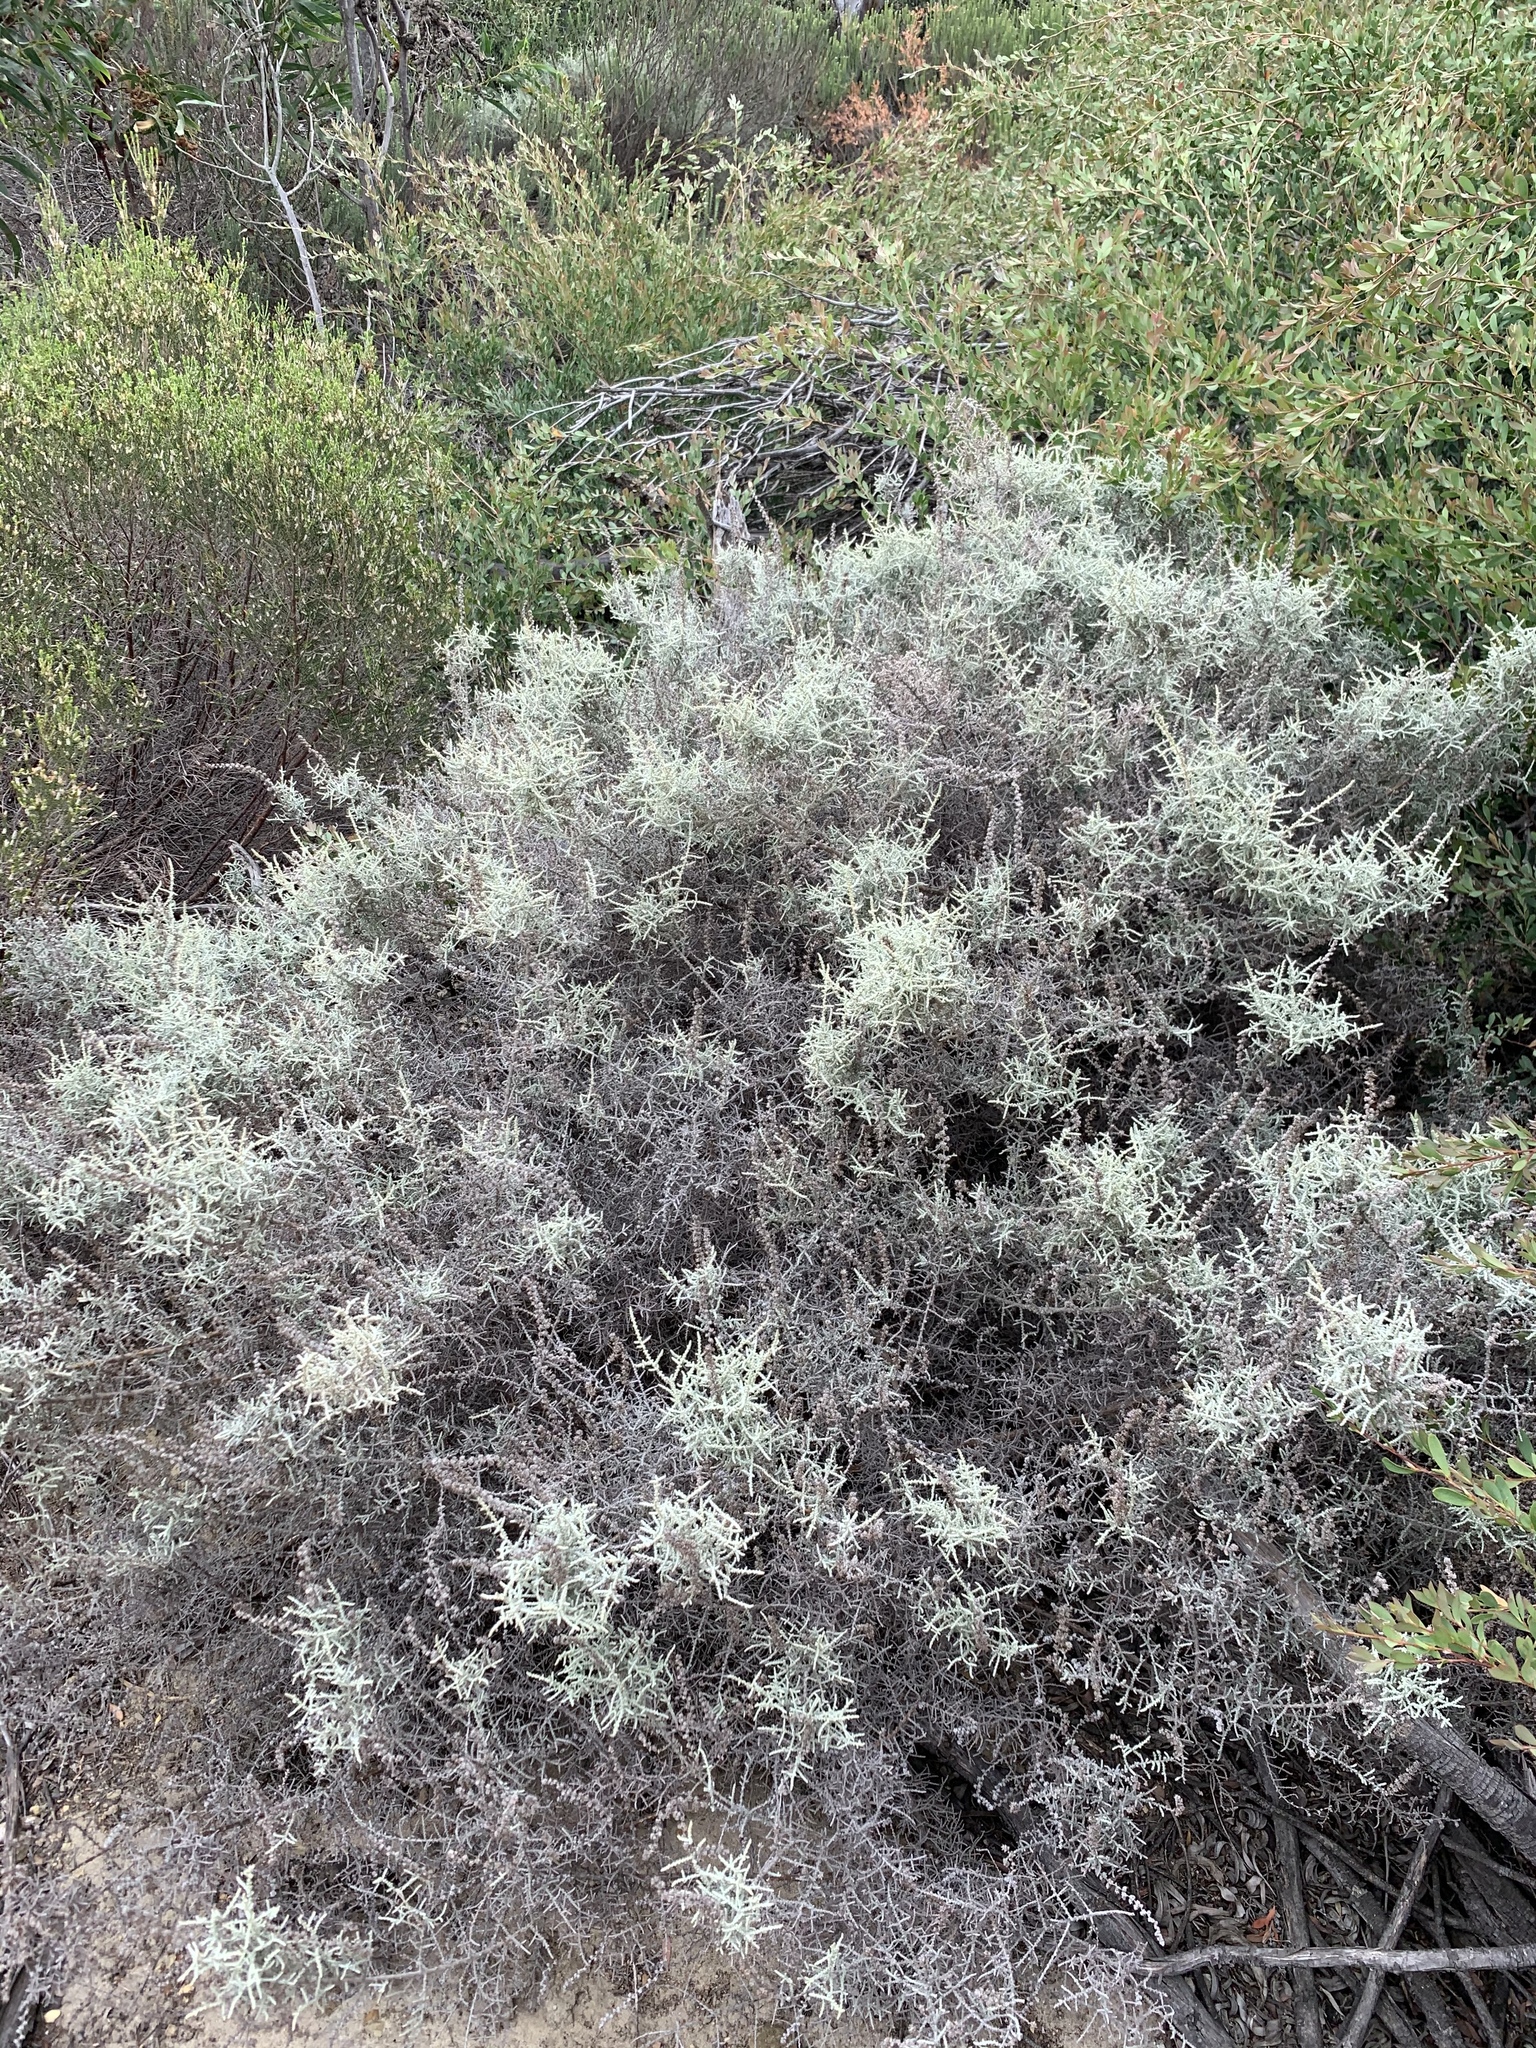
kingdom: Plantae
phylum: Tracheophyta
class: Magnoliopsida
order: Asterales
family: Asteraceae
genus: Seriphium
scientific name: Seriphium plumosum
